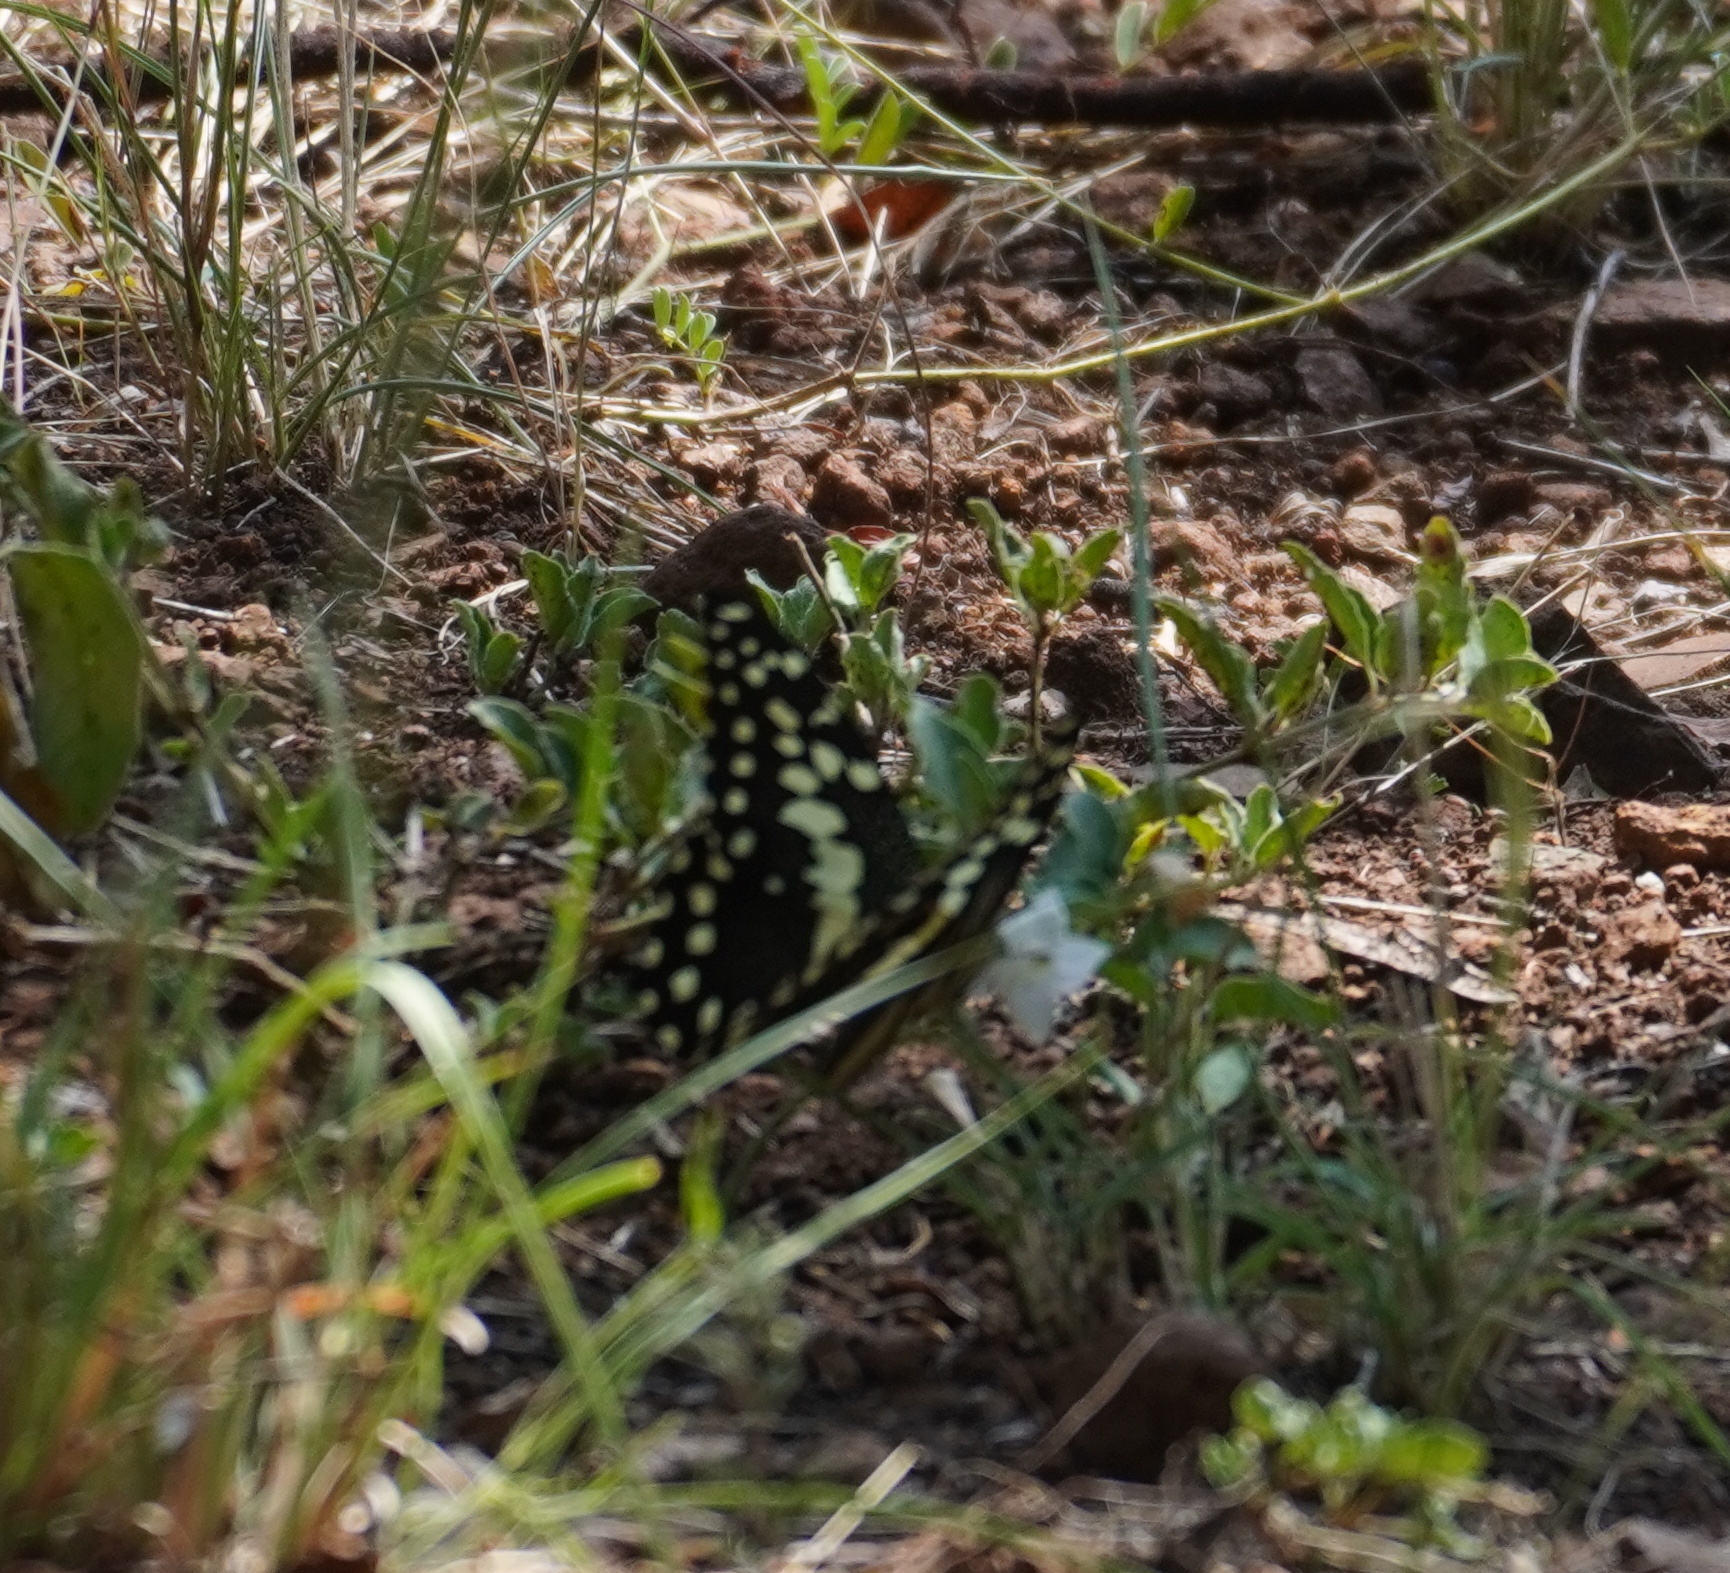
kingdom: Animalia
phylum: Arthropoda
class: Insecta
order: Lepidoptera
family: Papilionidae
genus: Papilio
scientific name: Papilio demodocus
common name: Christmas butterfly
